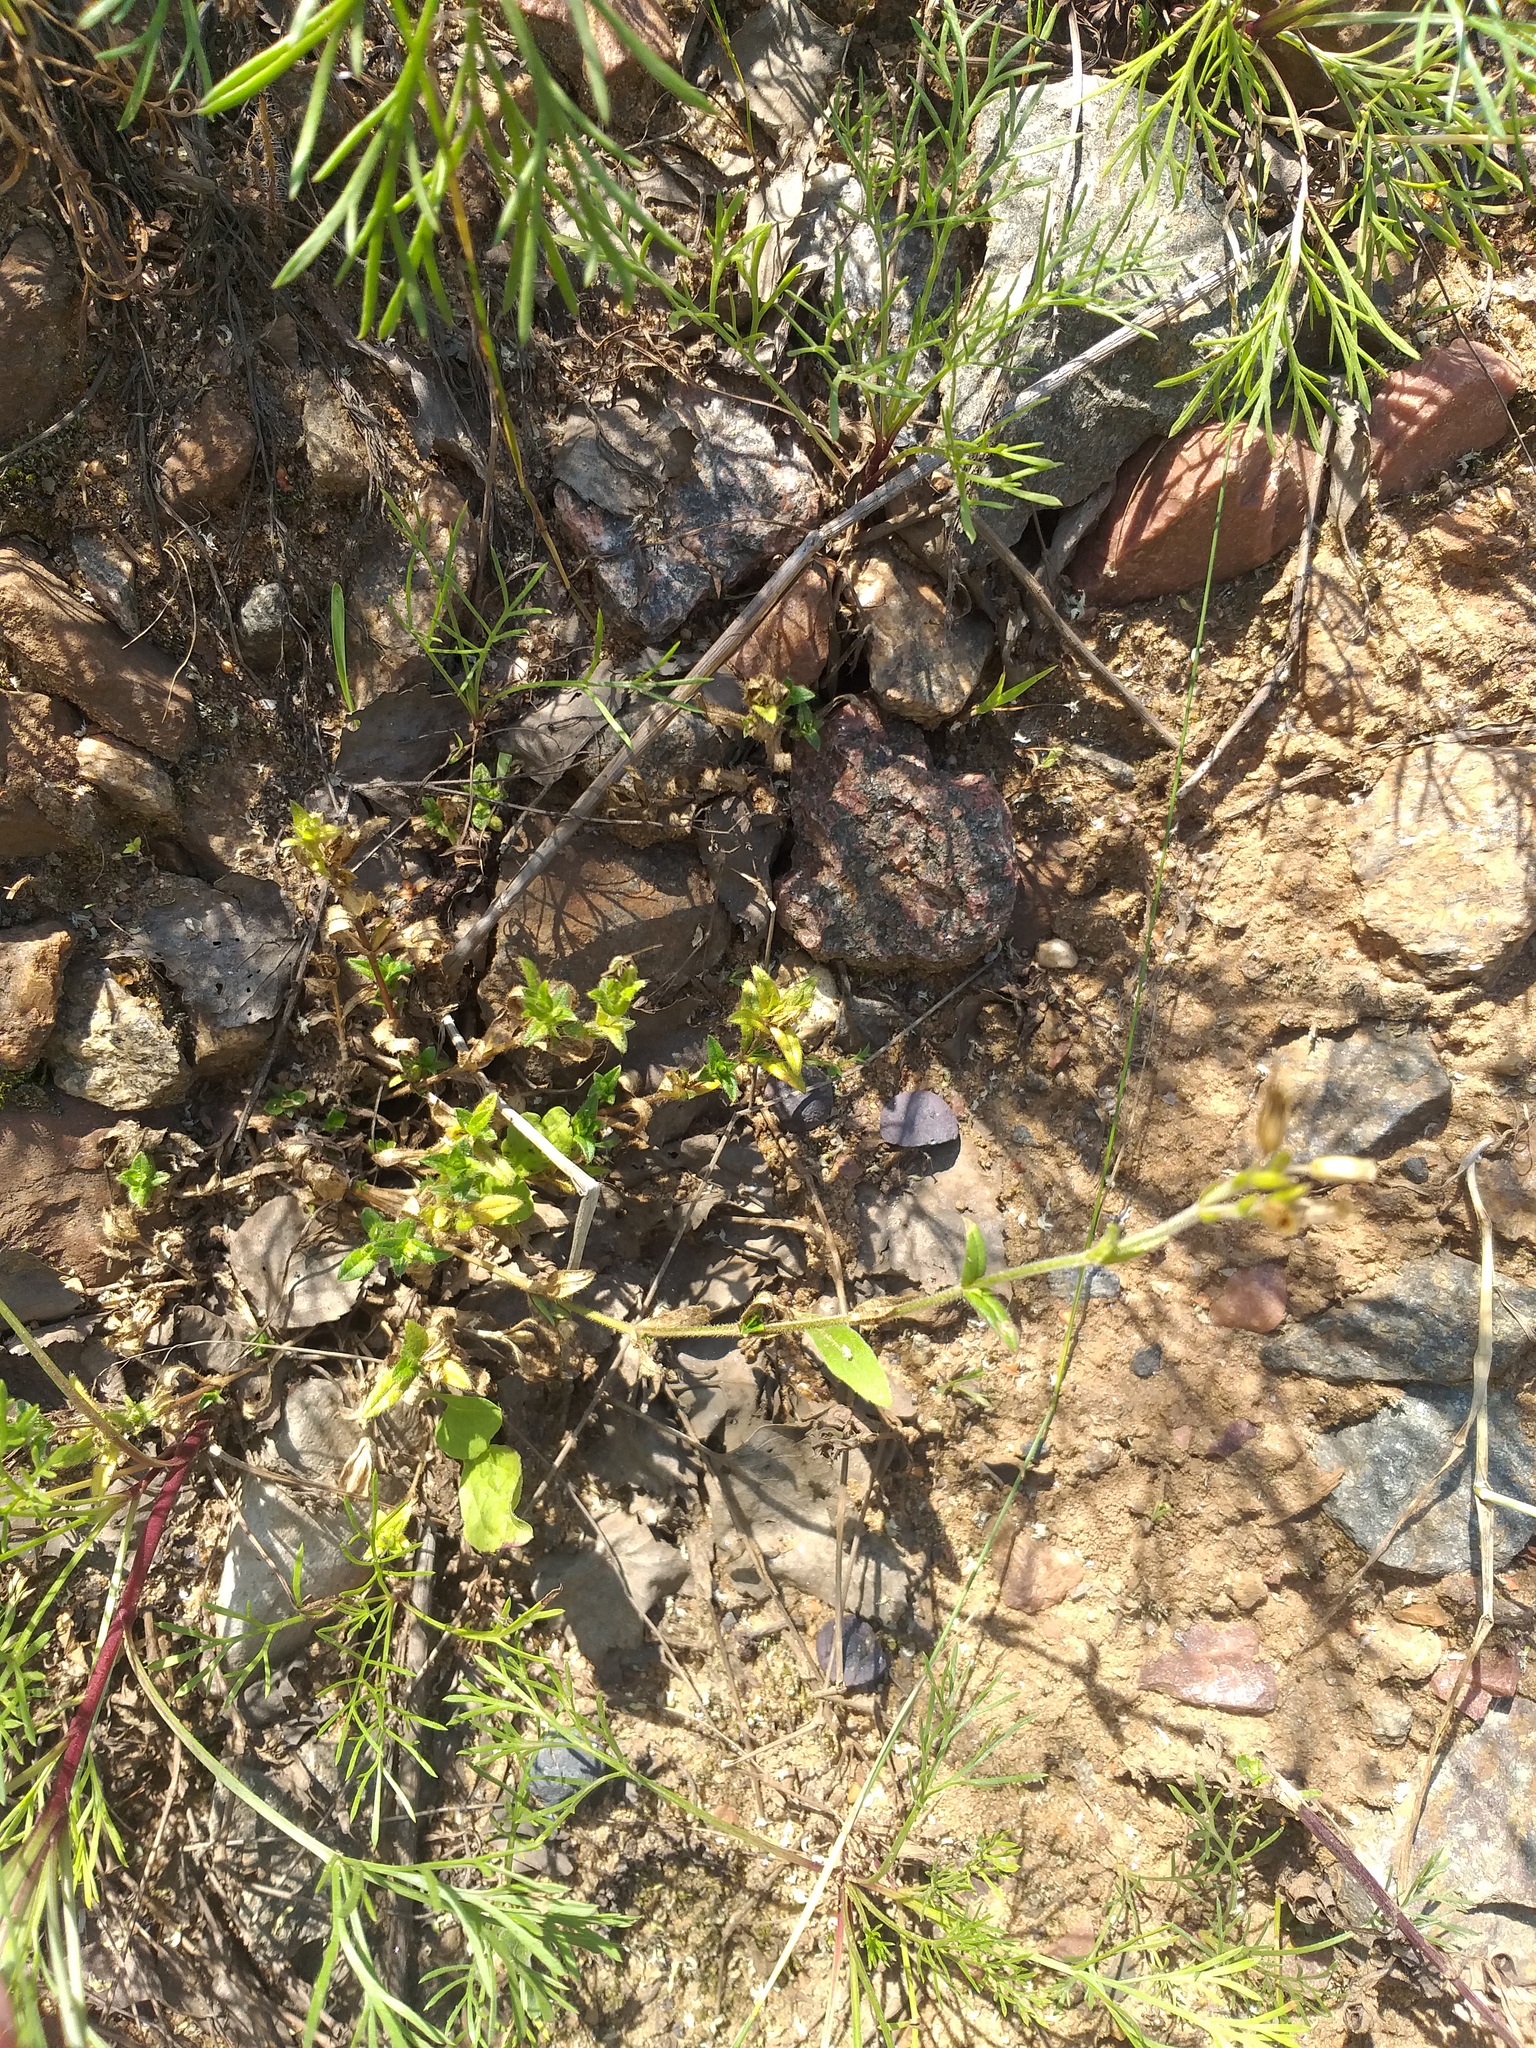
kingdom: Plantae
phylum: Tracheophyta
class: Magnoliopsida
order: Caryophyllales
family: Caryophyllaceae
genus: Cerastium
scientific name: Cerastium holosteoides
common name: Big chickweed
